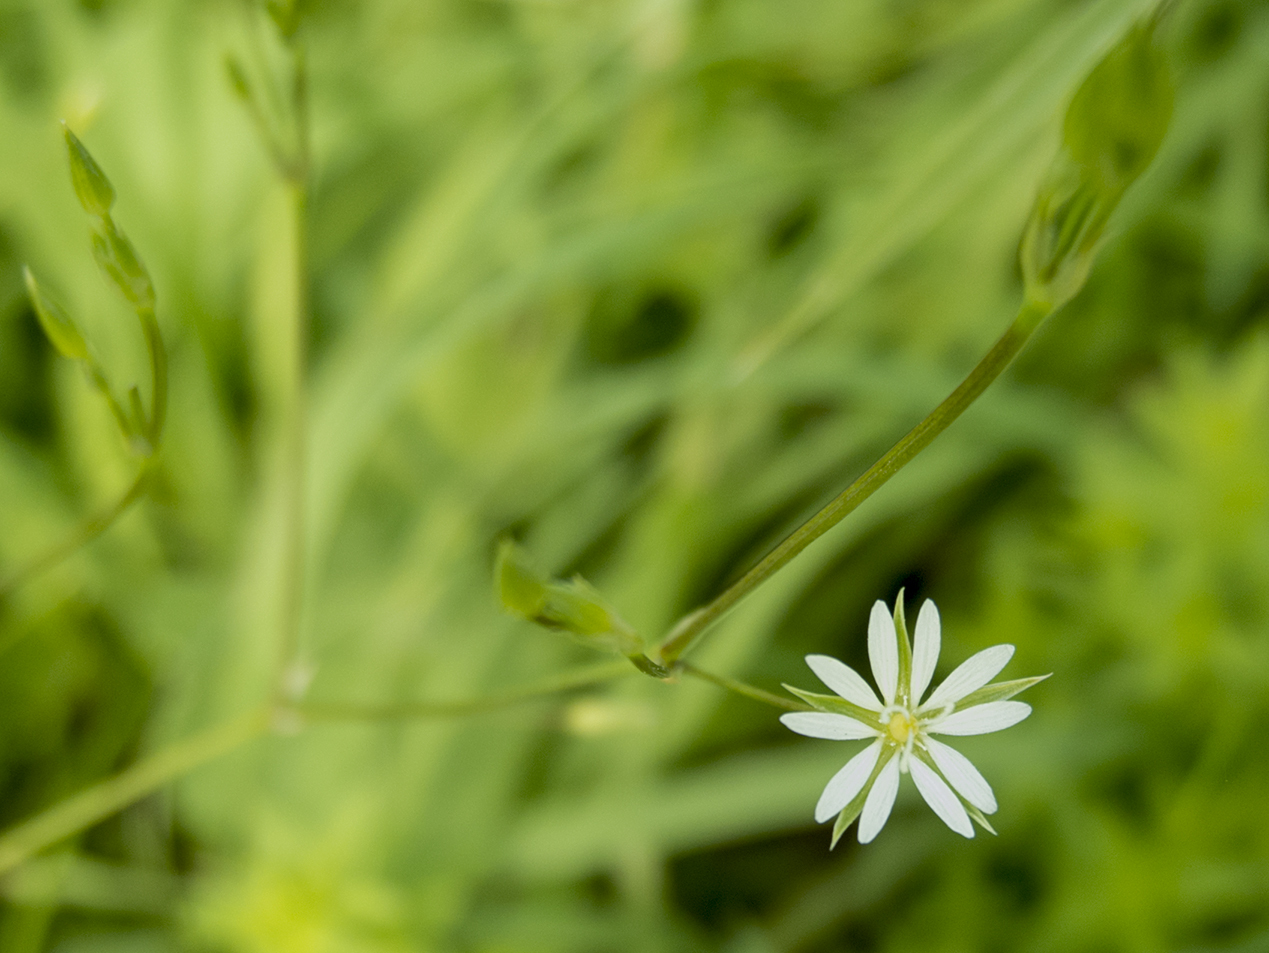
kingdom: Plantae
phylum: Tracheophyta
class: Magnoliopsida
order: Caryophyllales
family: Caryophyllaceae
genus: Stellaria
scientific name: Stellaria graminea
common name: Grass-like starwort
